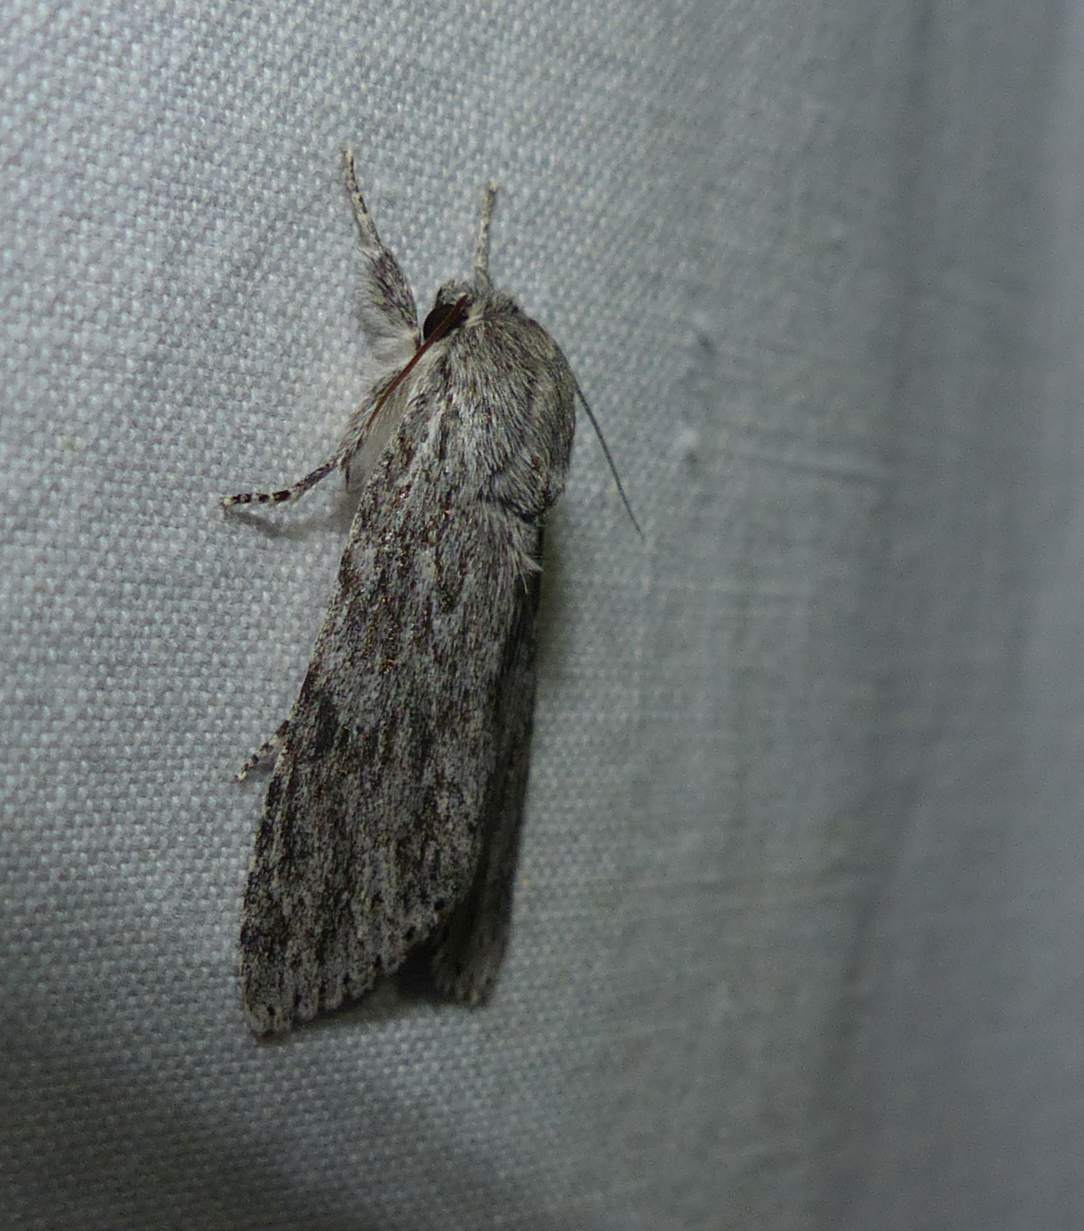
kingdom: Animalia
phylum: Arthropoda
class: Insecta
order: Lepidoptera
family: Noctuidae
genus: Acronicta
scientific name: Acronicta oblinita
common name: Smeared dagger
